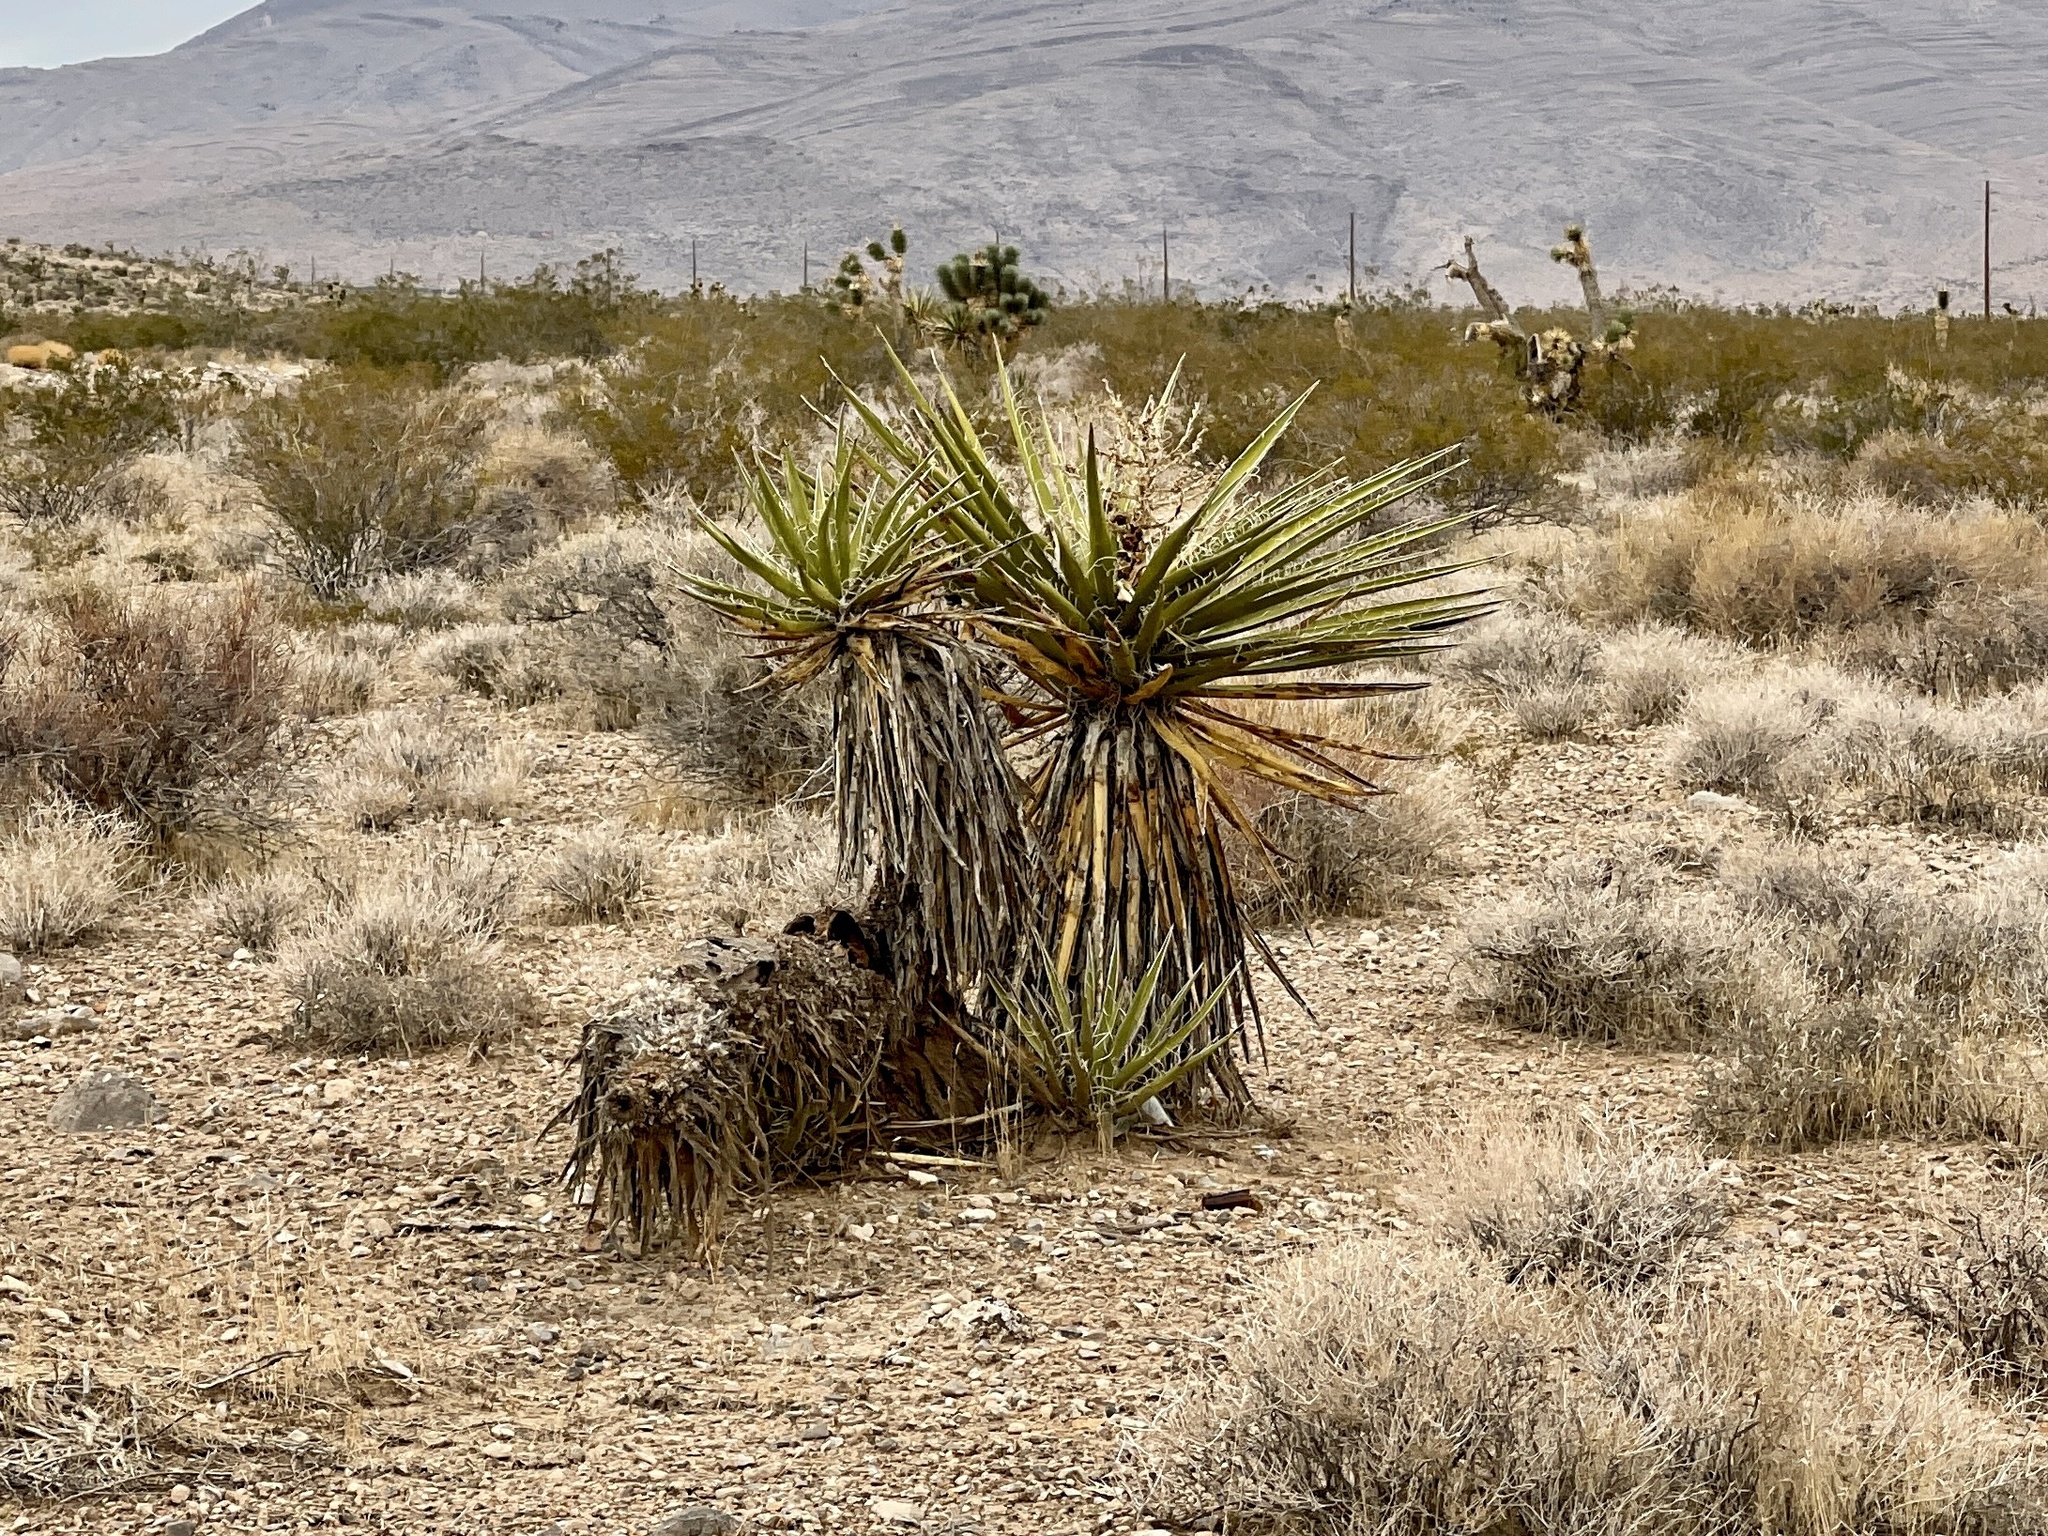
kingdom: Plantae
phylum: Tracheophyta
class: Liliopsida
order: Asparagales
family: Asparagaceae
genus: Yucca
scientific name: Yucca schidigera
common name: Mojave yucca
